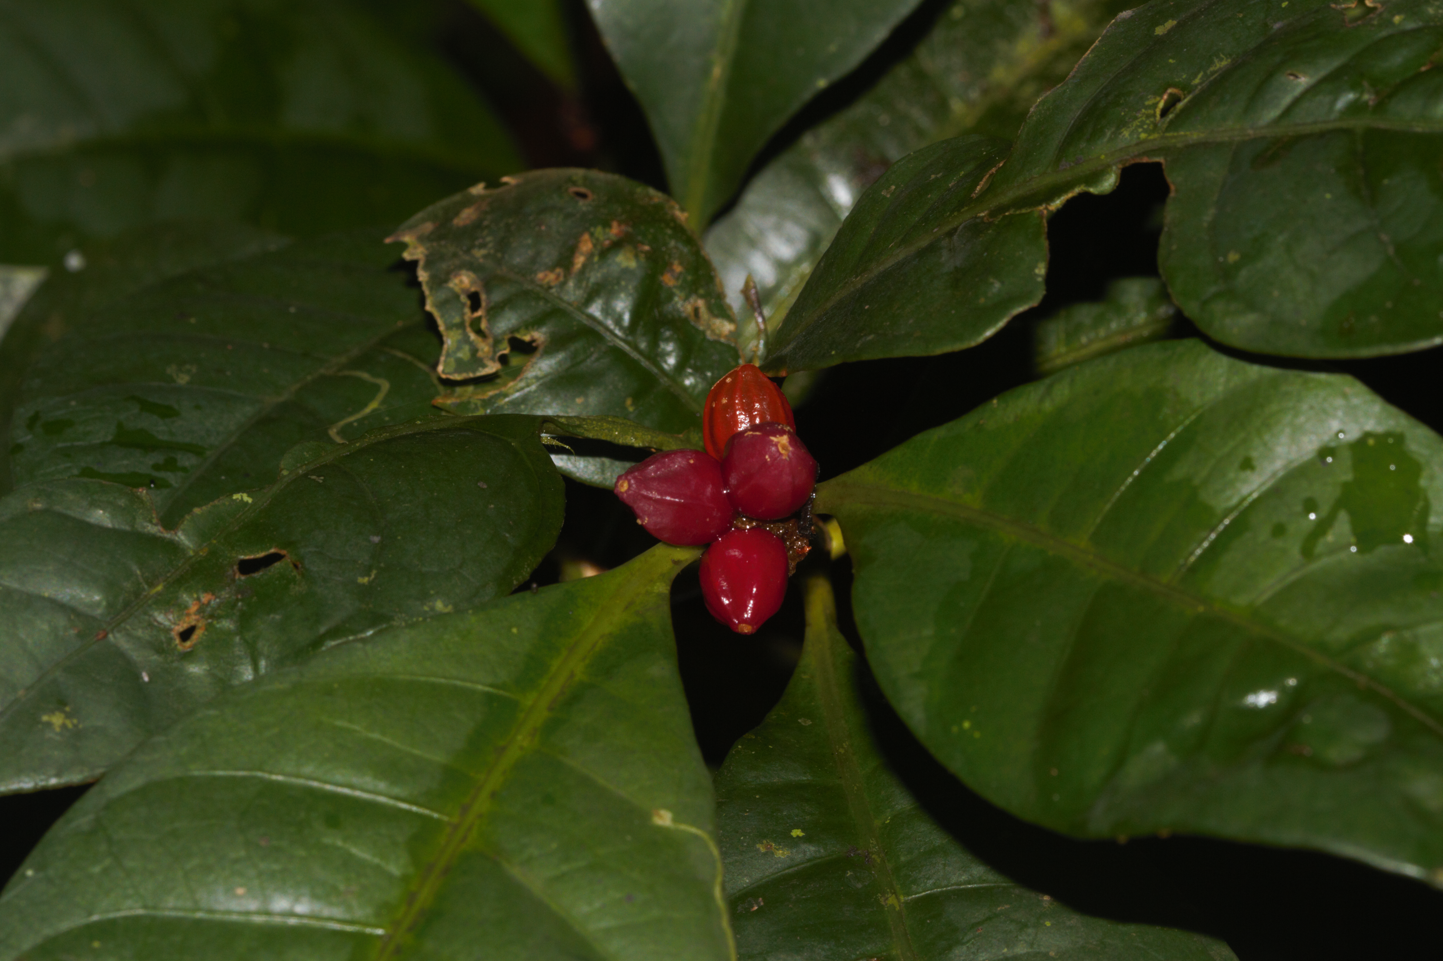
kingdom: Plantae
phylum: Tracheophyta
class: Magnoliopsida
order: Gentianales
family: Rubiaceae
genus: Eumachia
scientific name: Eumachia kappleri
